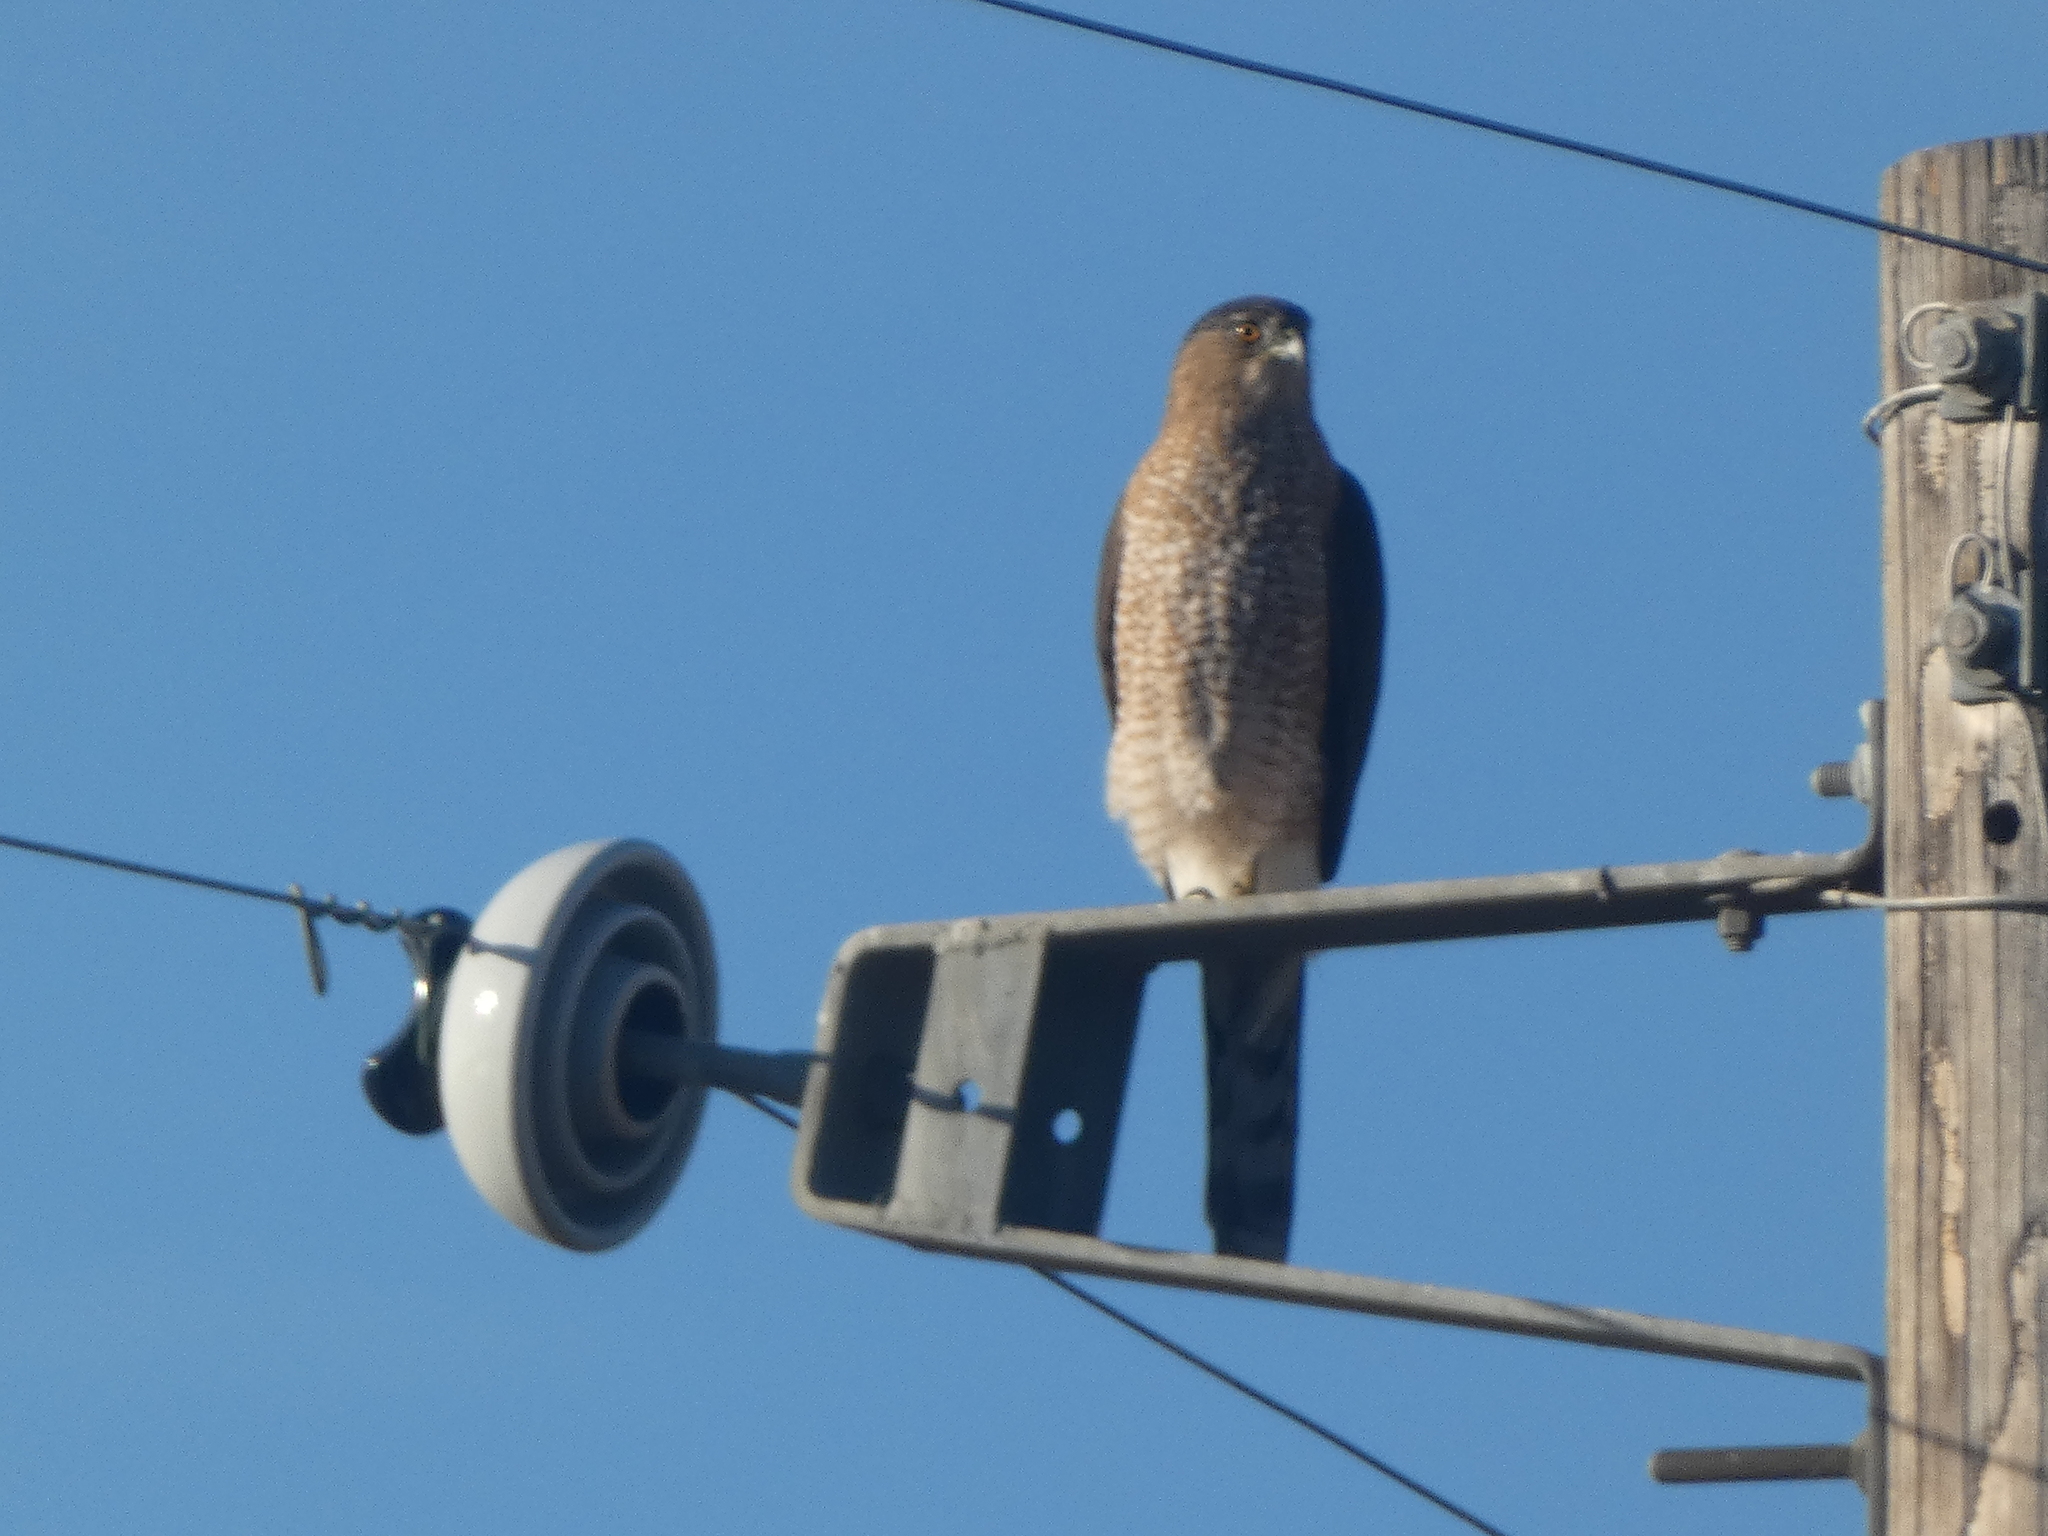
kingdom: Animalia
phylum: Chordata
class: Aves
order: Accipitriformes
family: Accipitridae
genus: Accipiter
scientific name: Accipiter cooperii
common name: Cooper's hawk
